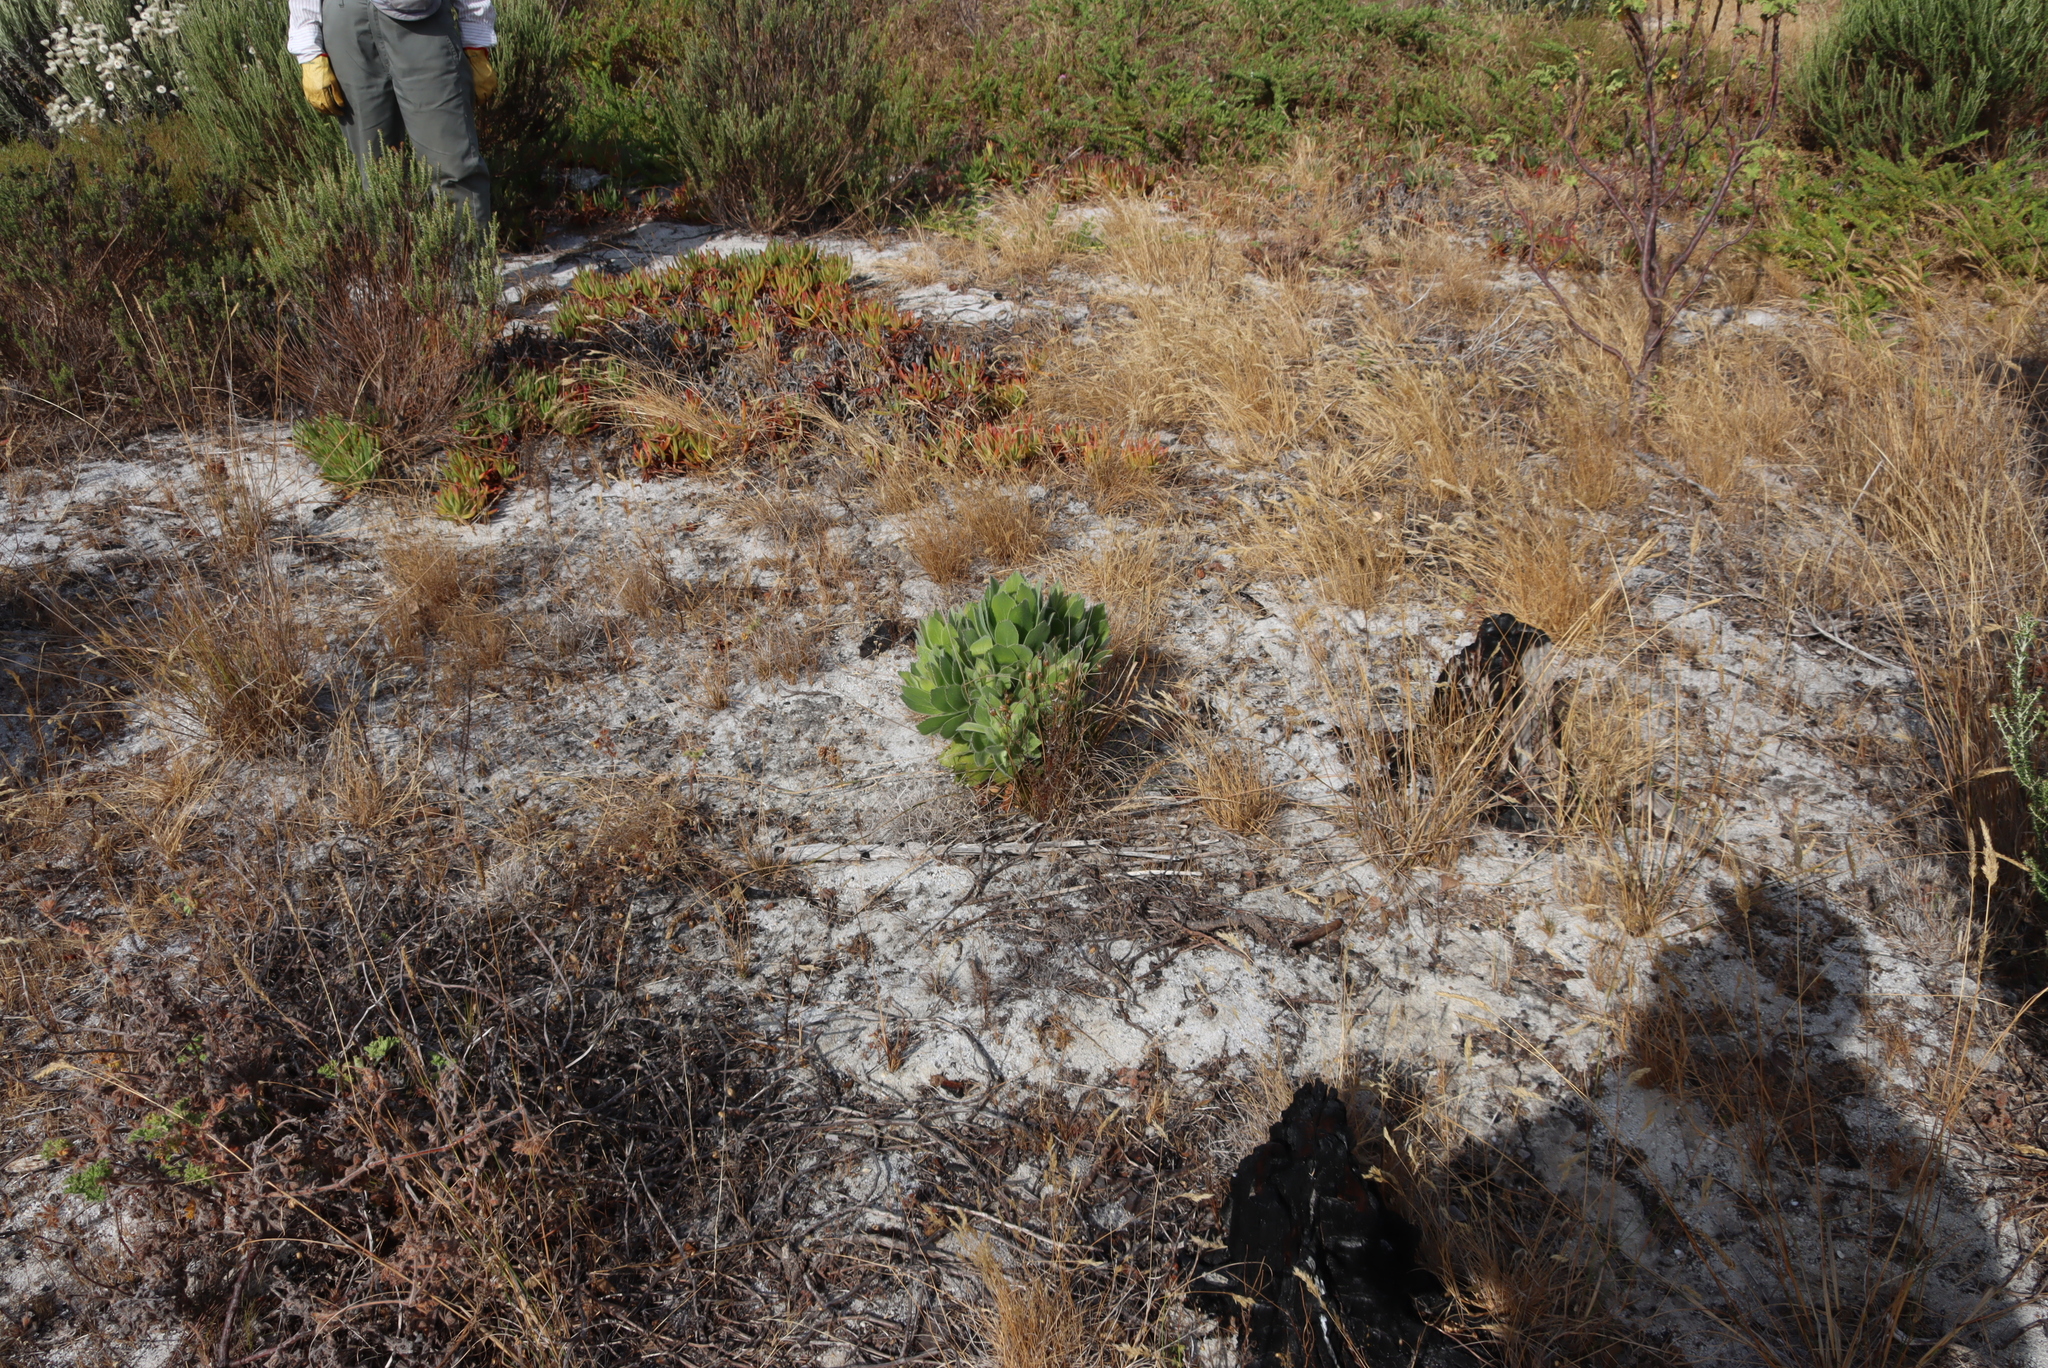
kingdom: Plantae
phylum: Tracheophyta
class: Magnoliopsida
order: Proteales
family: Proteaceae
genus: Leucospermum
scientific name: Leucospermum conocarpodendron
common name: Tree pincushion
